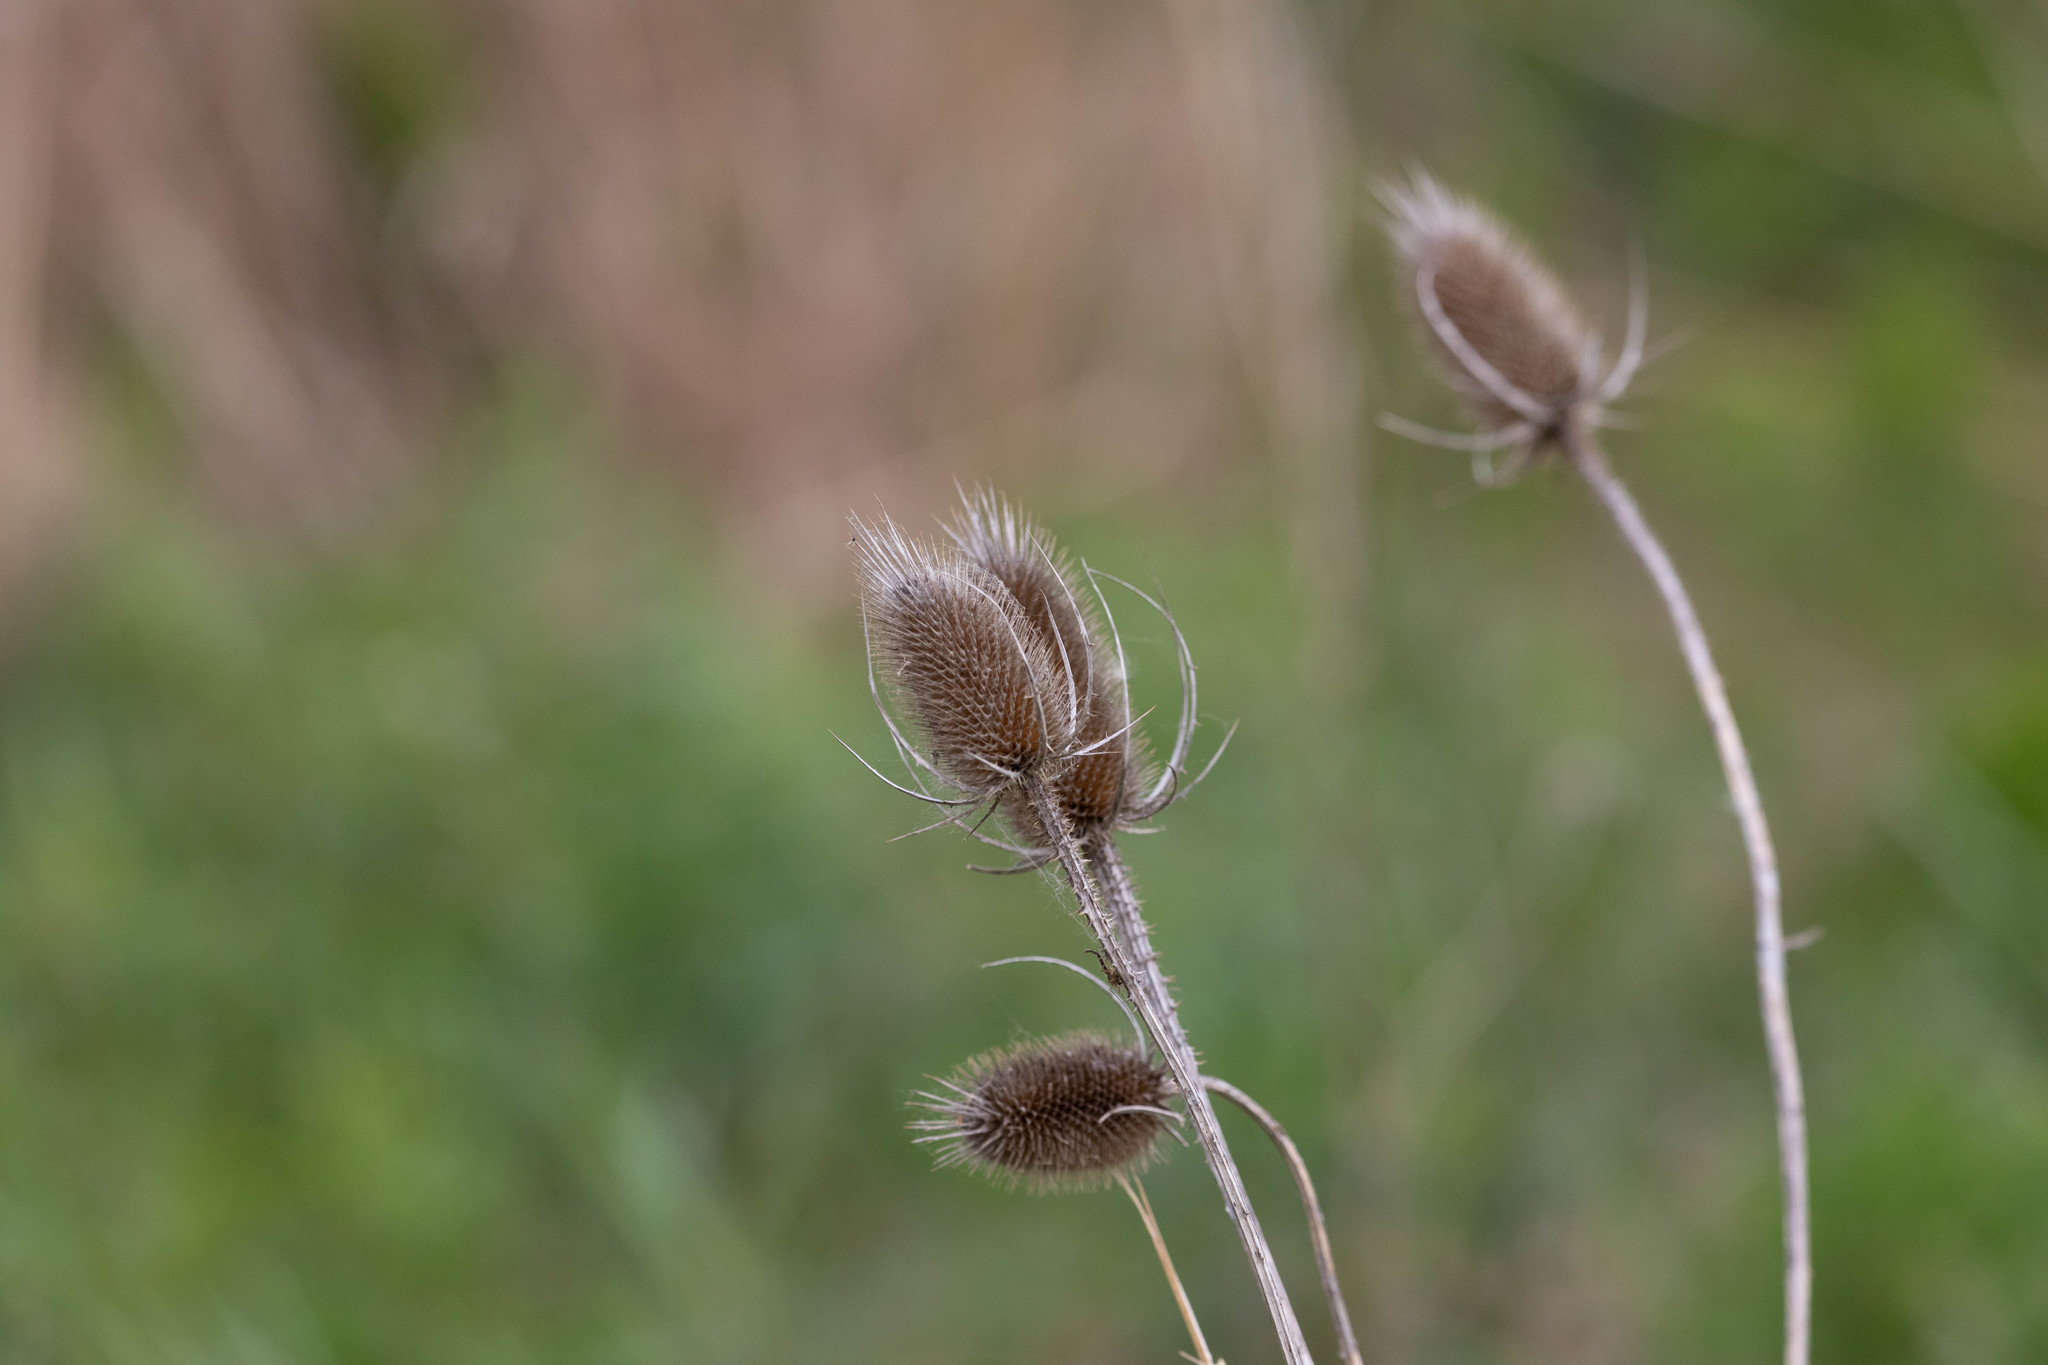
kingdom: Plantae
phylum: Tracheophyta
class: Magnoliopsida
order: Dipsacales
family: Caprifoliaceae
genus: Dipsacus
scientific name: Dipsacus fullonum
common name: Teasel
